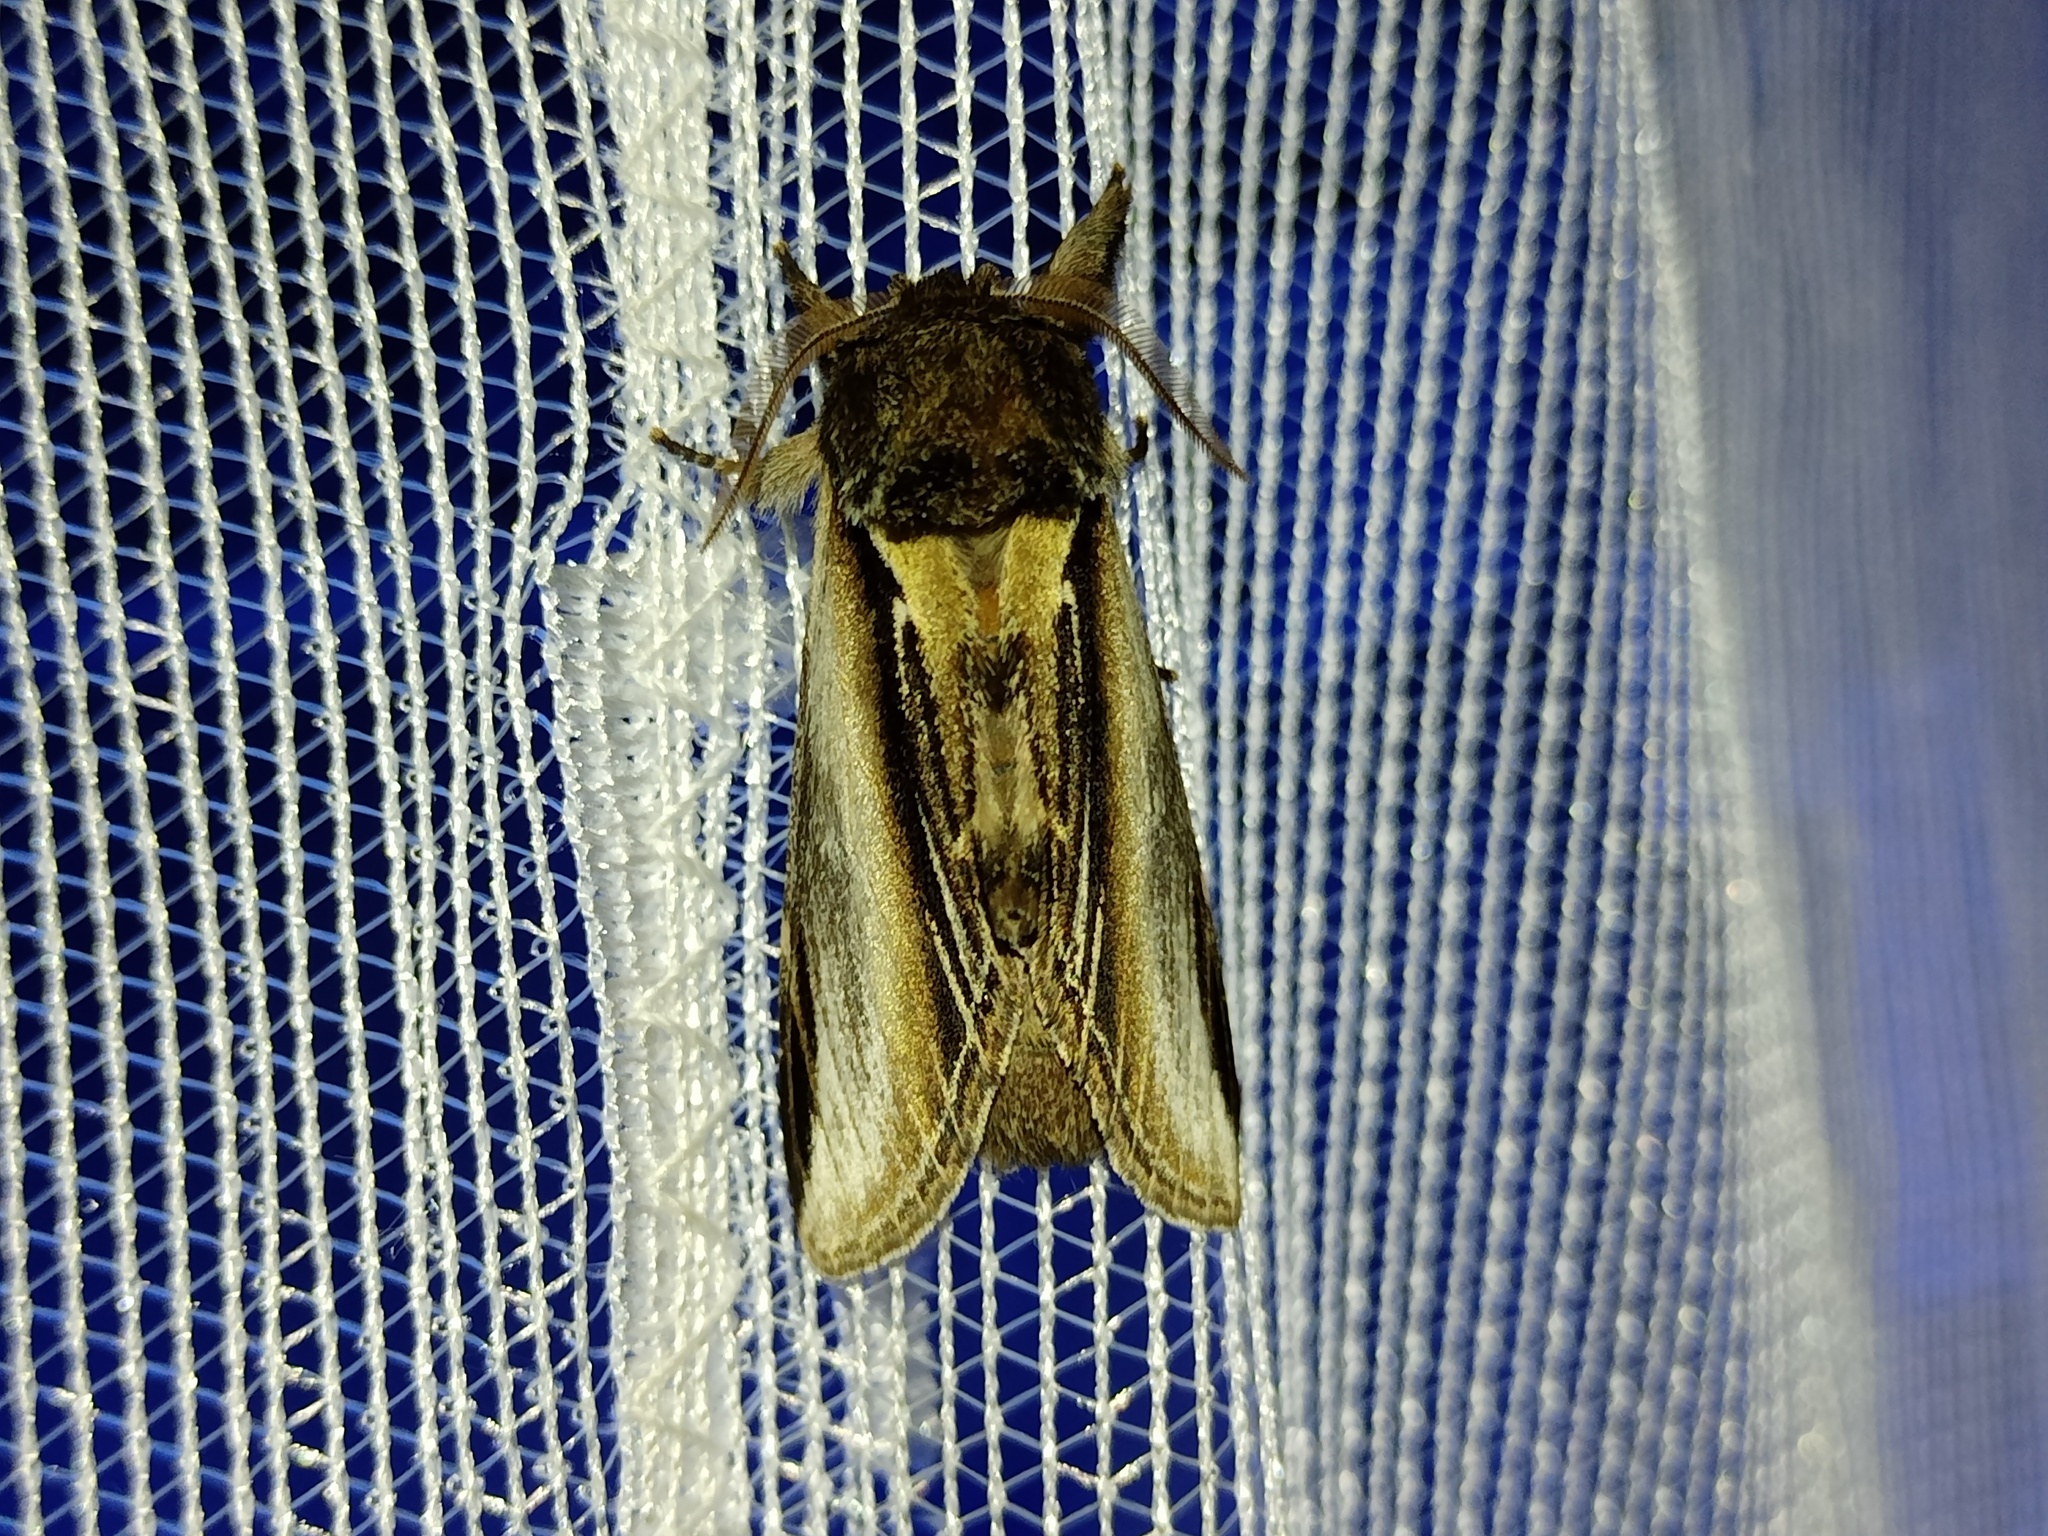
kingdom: Animalia
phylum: Arthropoda
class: Insecta
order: Lepidoptera
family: Notodontidae
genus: Pheosia
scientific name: Pheosia tremula
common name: Swallow prominent
